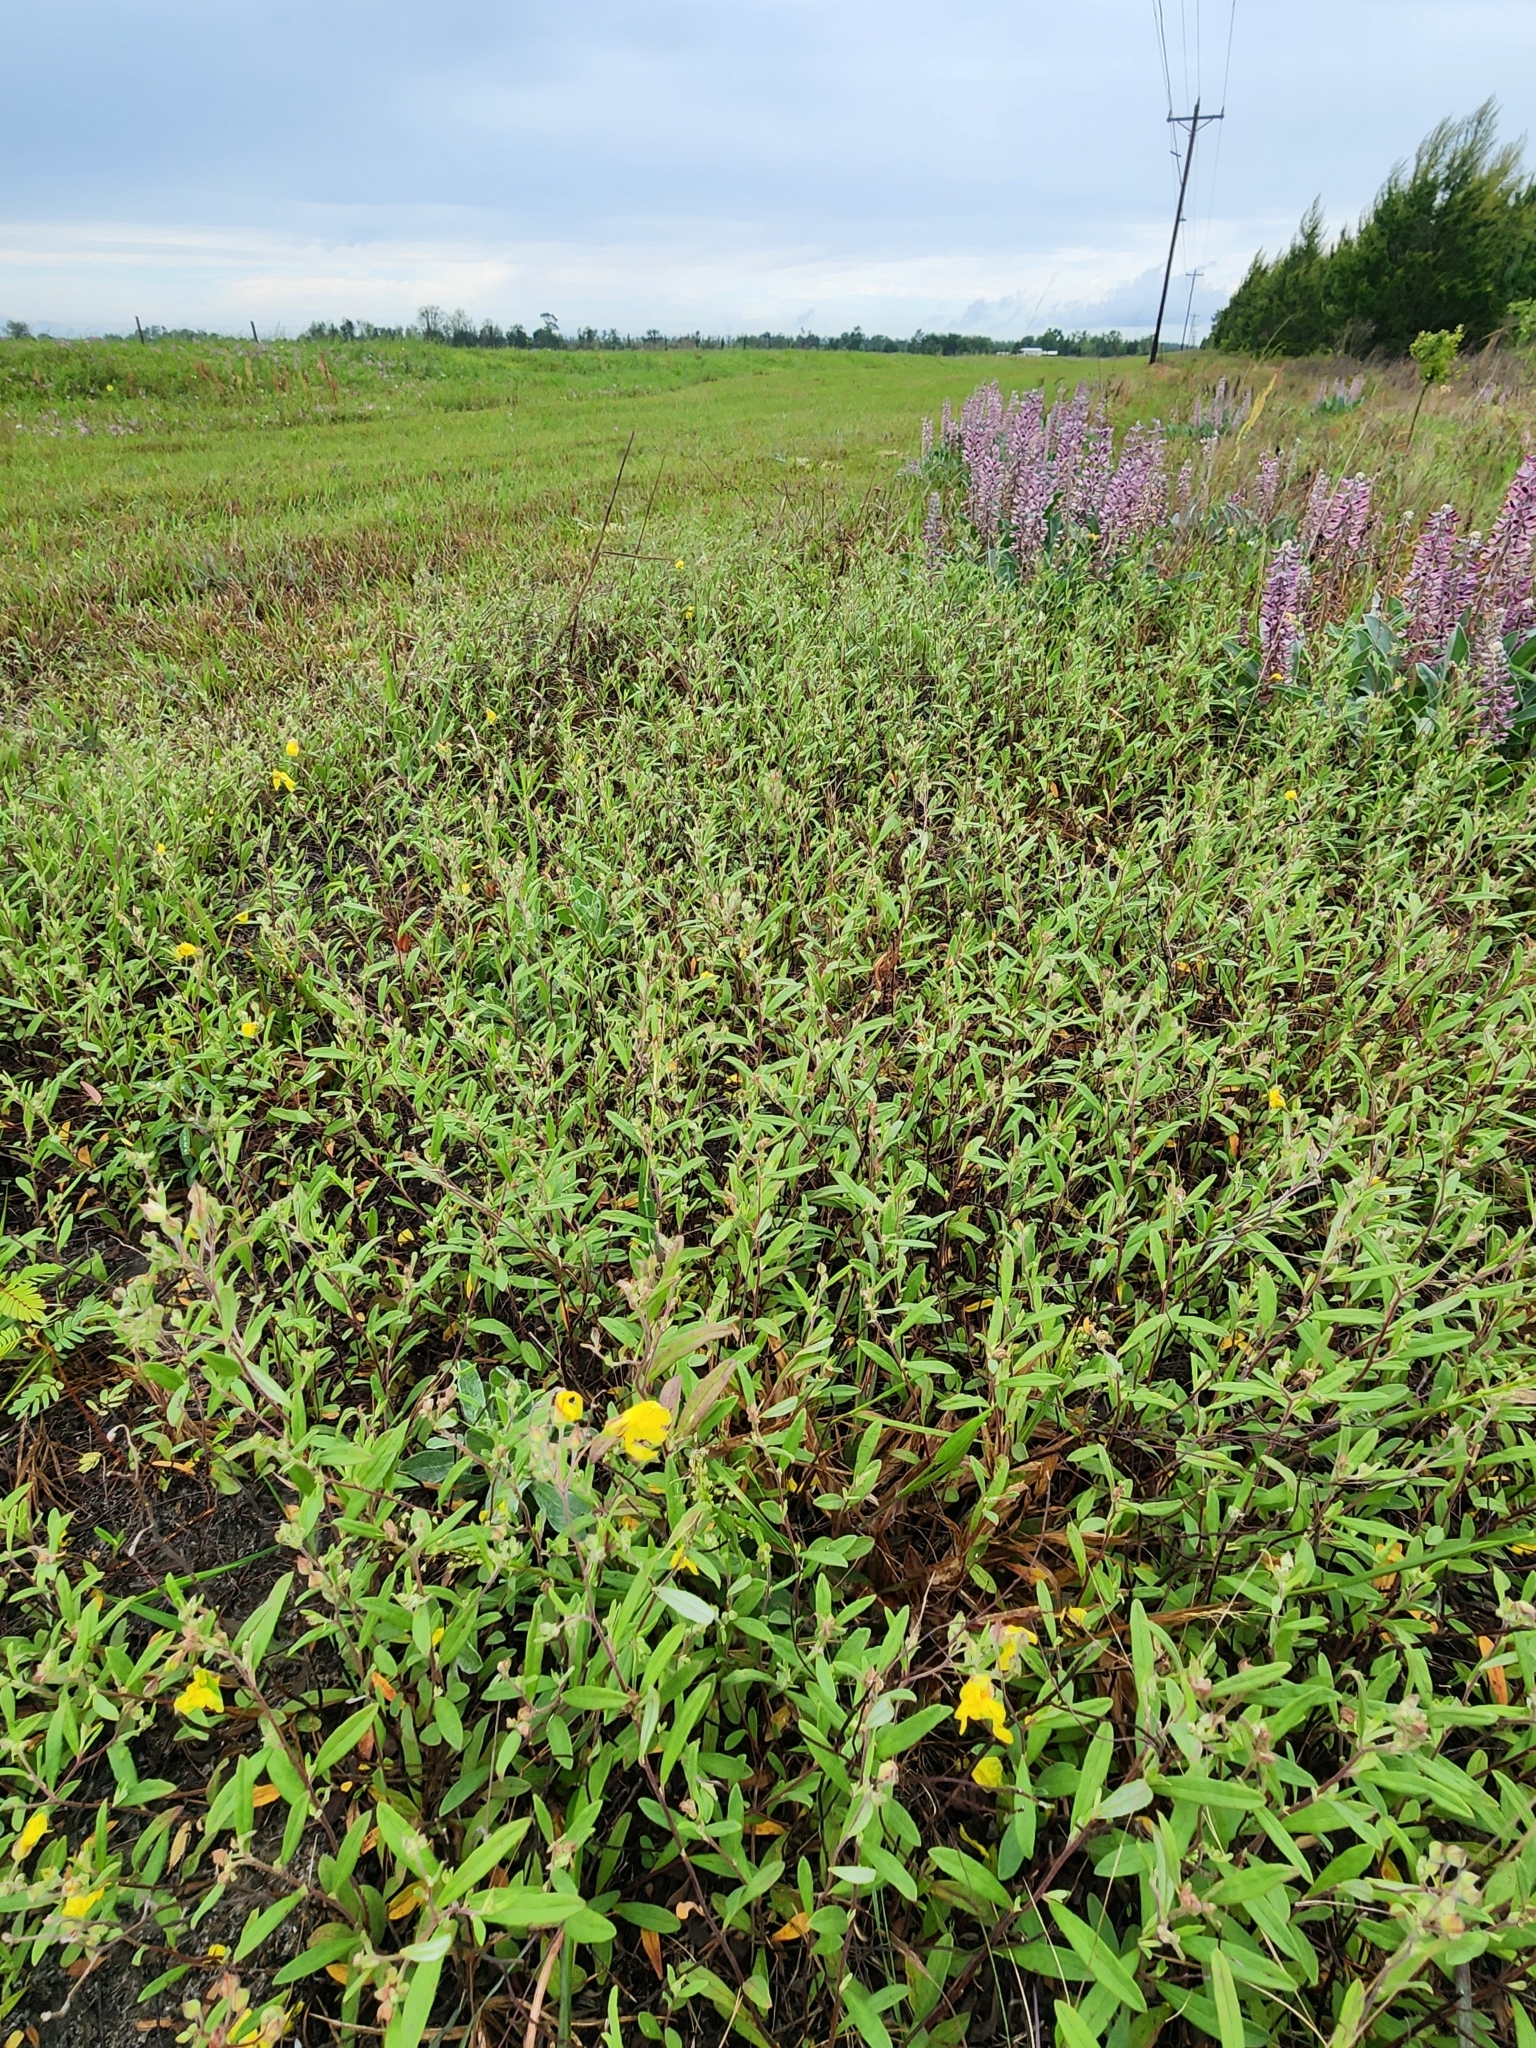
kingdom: Plantae
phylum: Tracheophyta
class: Magnoliopsida
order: Malvales
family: Cistaceae
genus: Crocanthemum
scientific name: Crocanthemum corymbosum
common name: Pinebarren sun-rose
